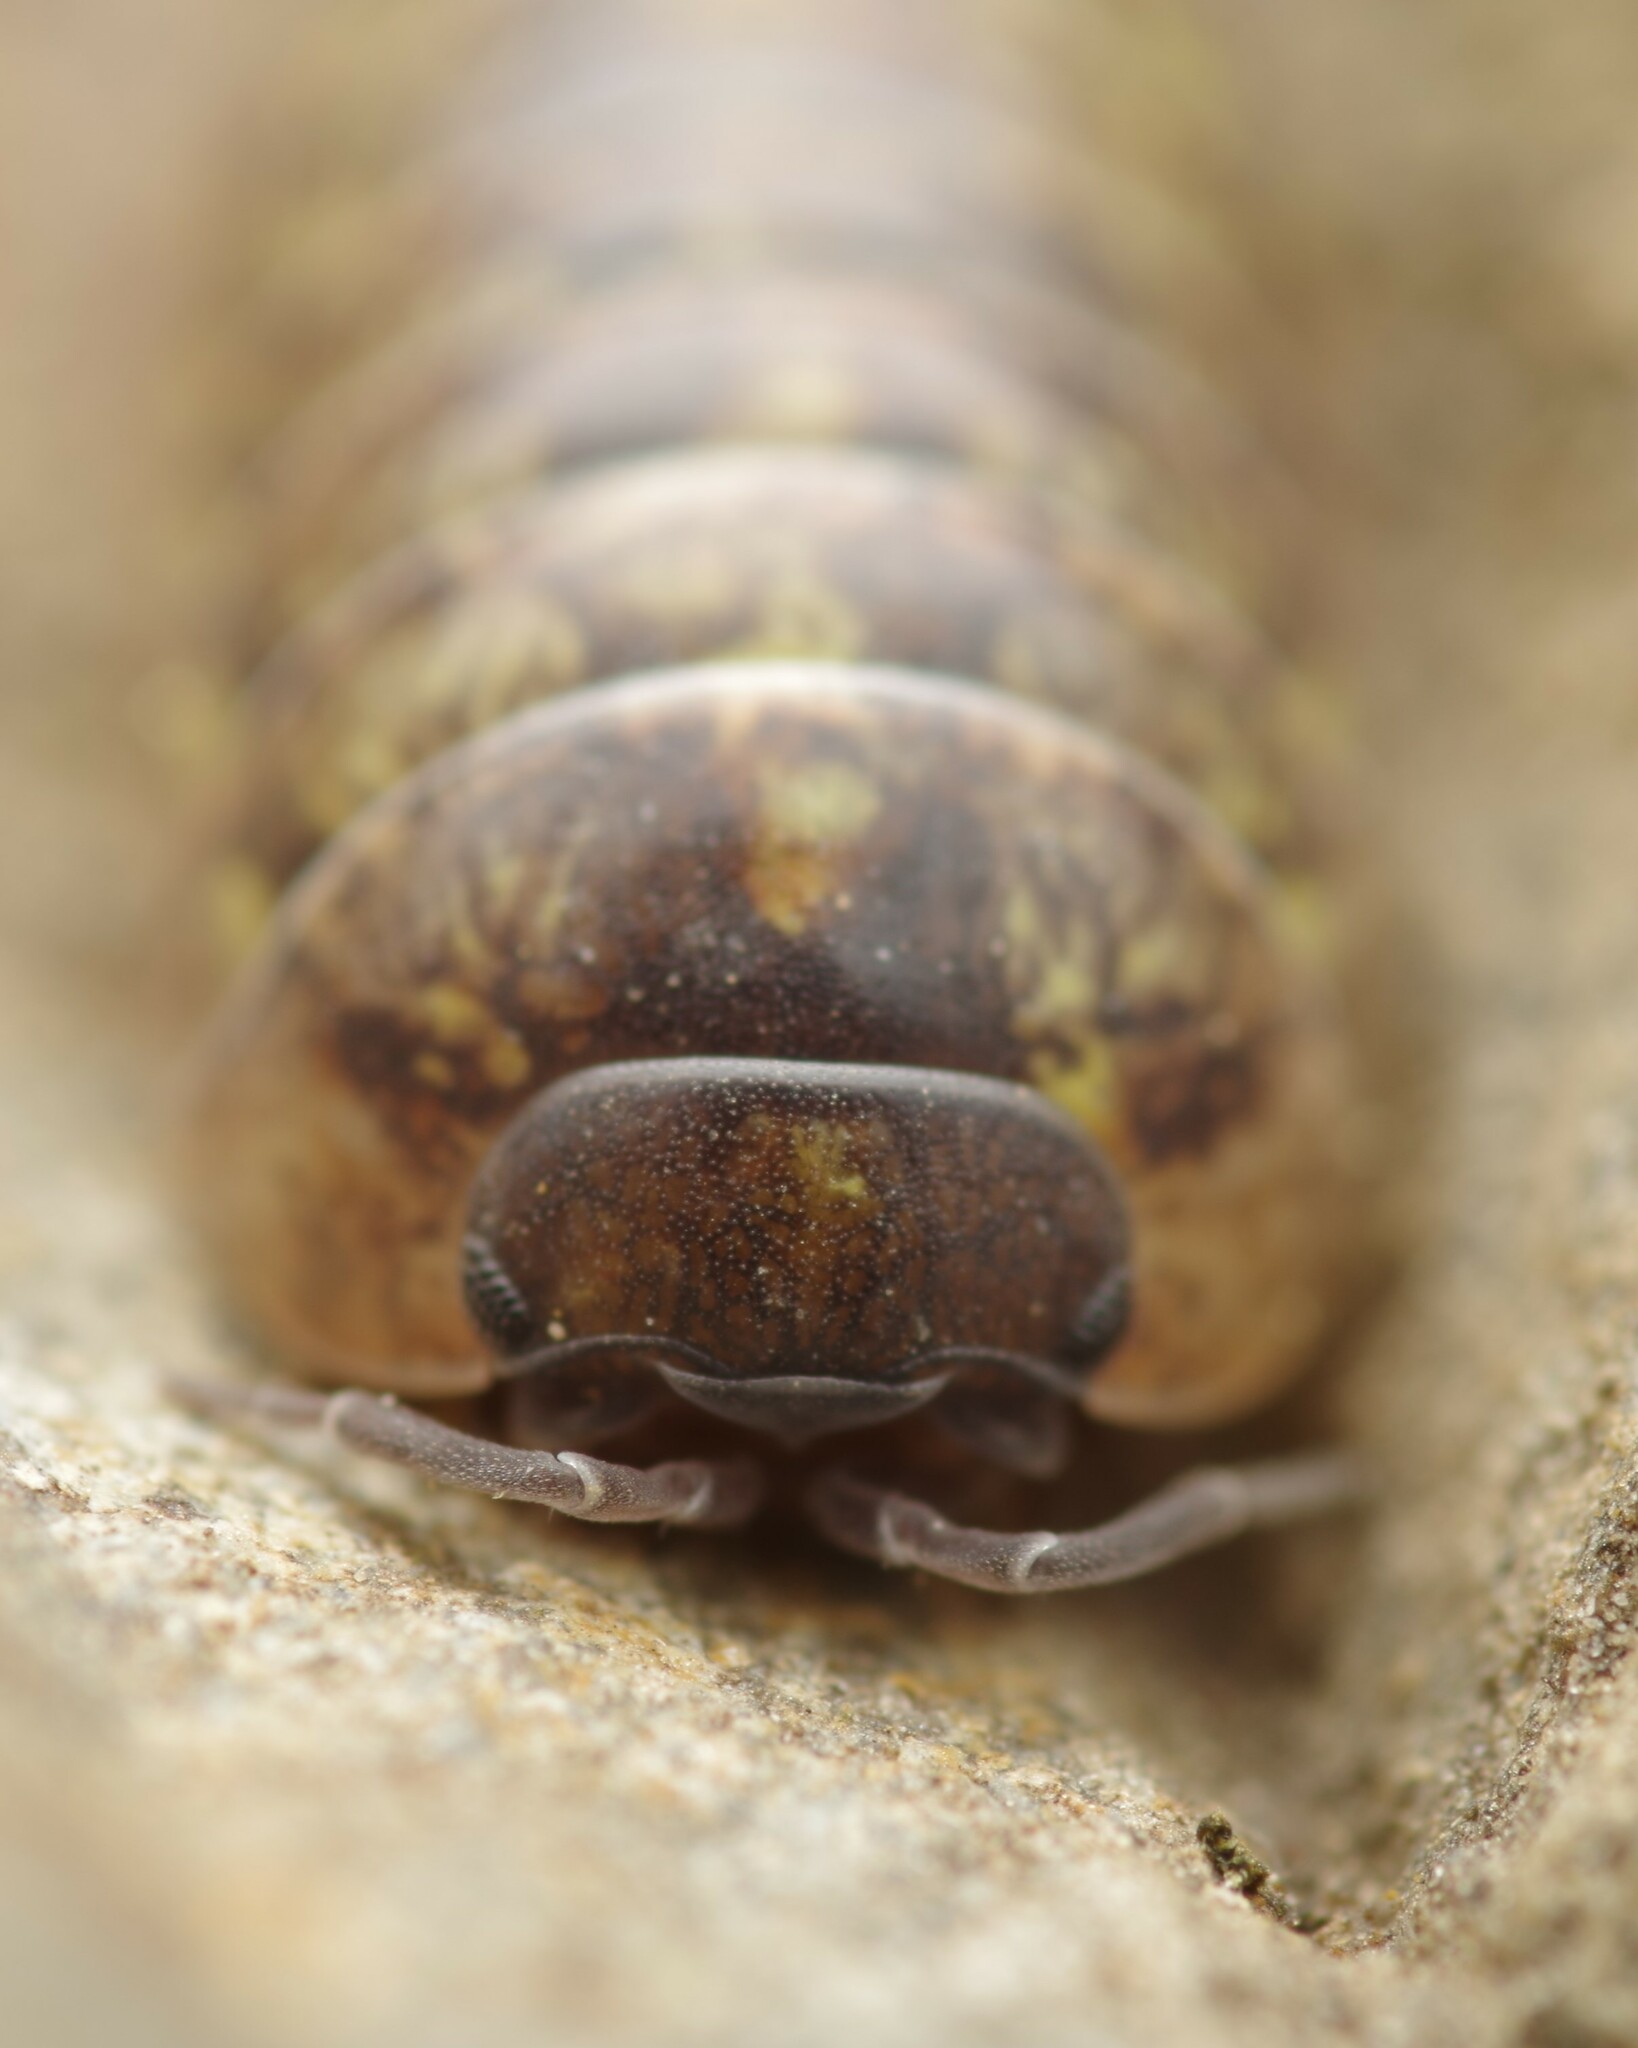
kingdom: Animalia
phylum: Arthropoda
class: Malacostraca
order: Isopoda
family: Armadillidiidae
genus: Armadillidium
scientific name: Armadillidium vulgare
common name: Common pill woodlouse
